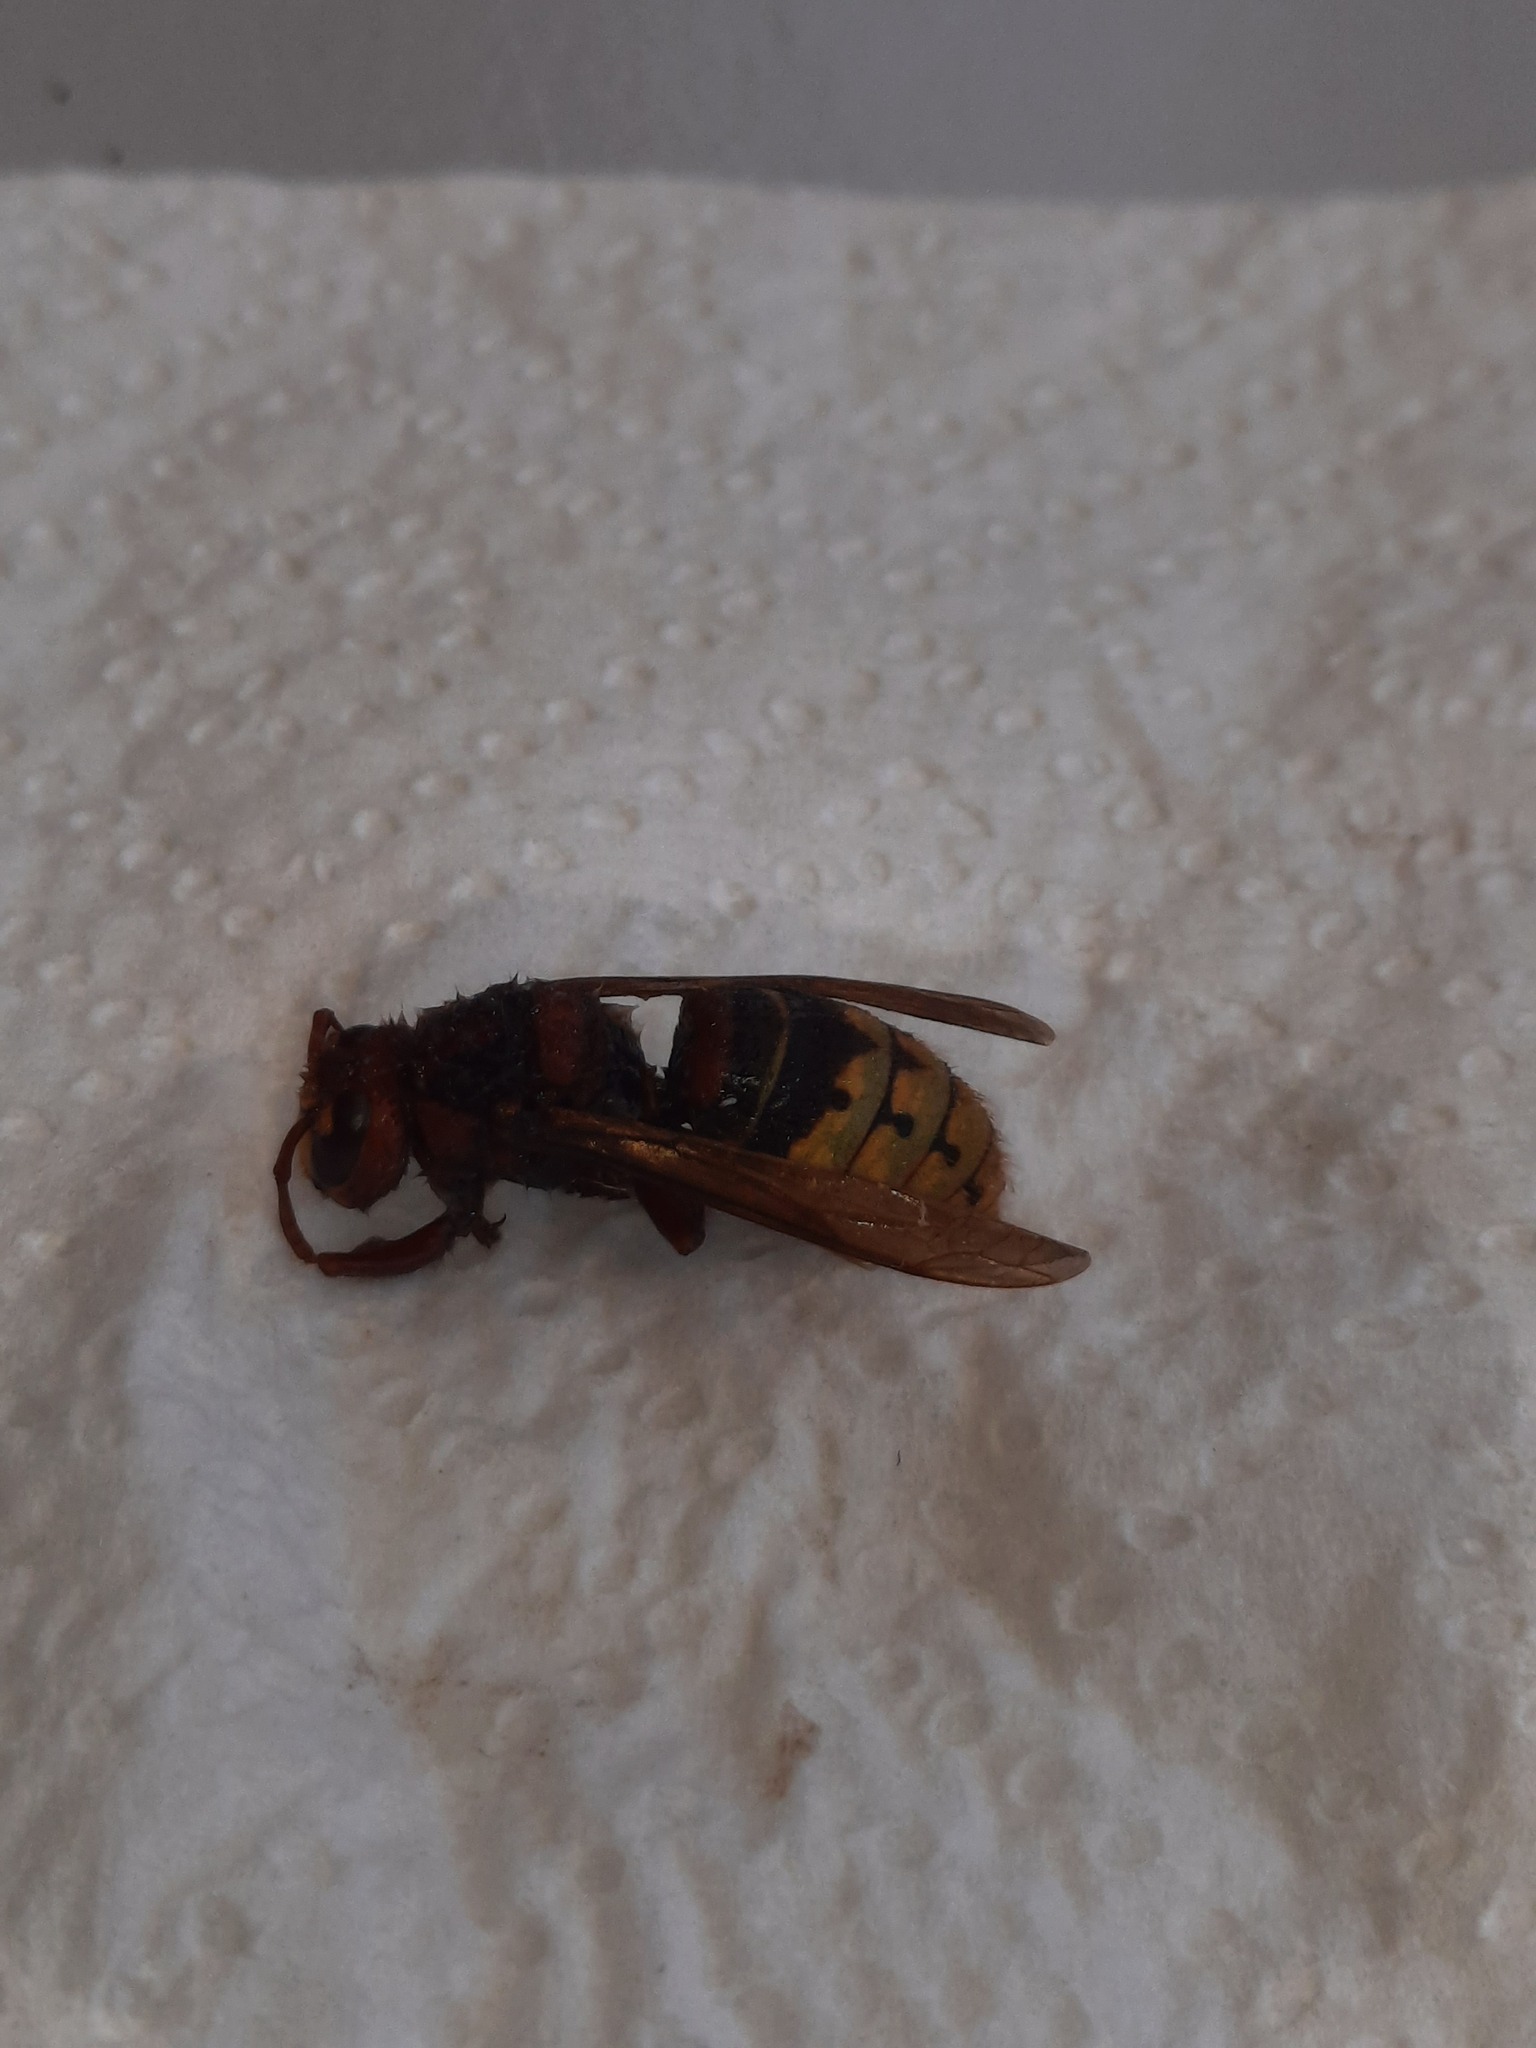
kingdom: Animalia
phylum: Arthropoda
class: Insecta
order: Hymenoptera
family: Vespidae
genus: Vespa
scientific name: Vespa crabro
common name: Hornet
